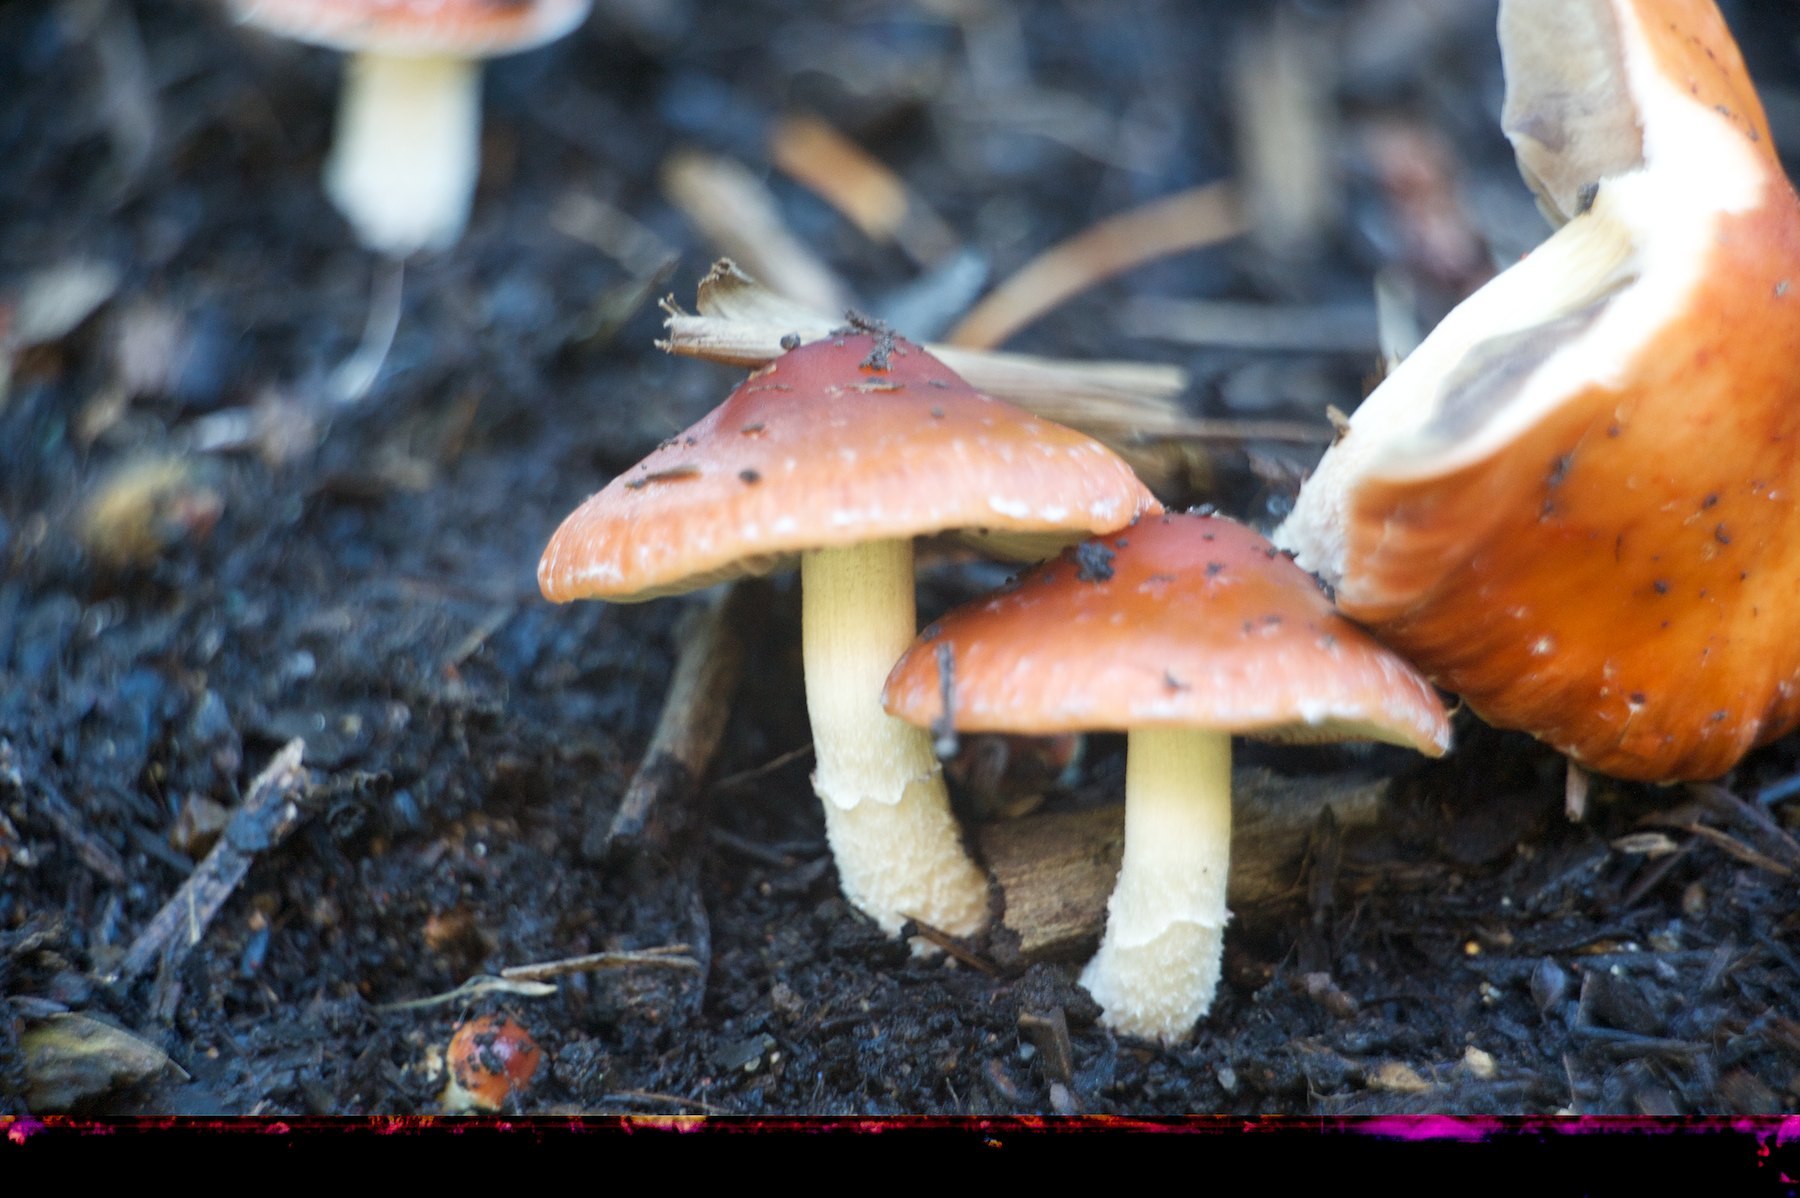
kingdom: Fungi
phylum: Basidiomycota
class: Agaricomycetes
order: Agaricales
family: Strophariaceae
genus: Leratiomyces
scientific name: Leratiomyces ceres
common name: Redlead roundhead
